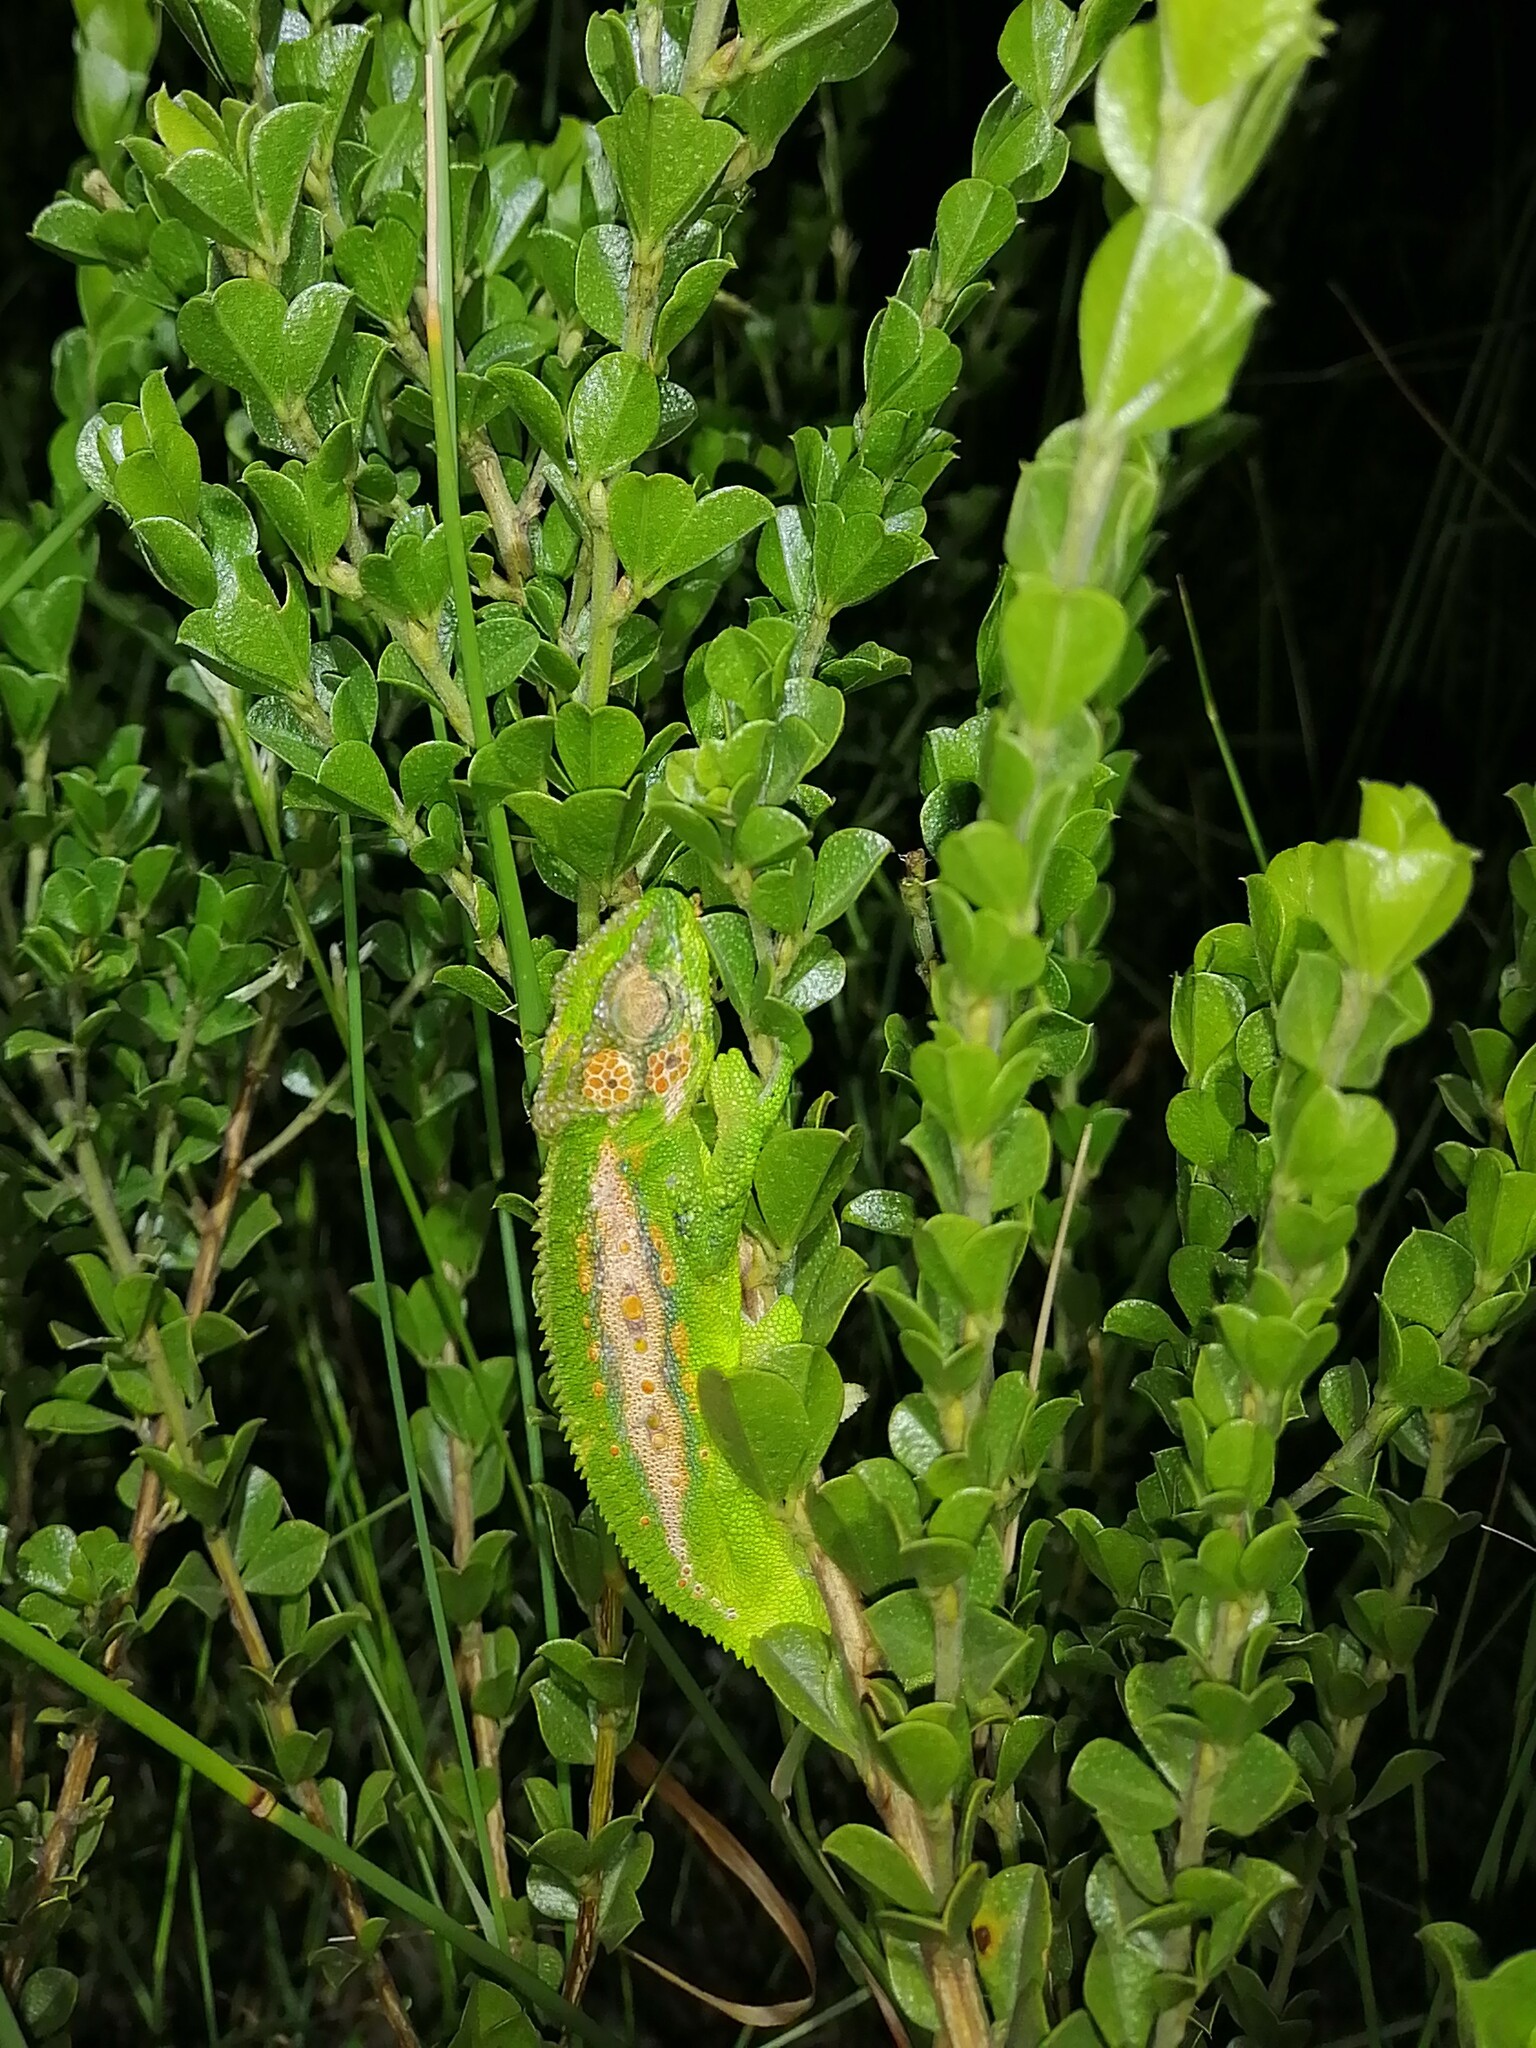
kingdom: Animalia
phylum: Chordata
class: Squamata
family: Chamaeleonidae
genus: Bradypodion
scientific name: Bradypodion pumilum
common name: Cape dwarf chameleon
